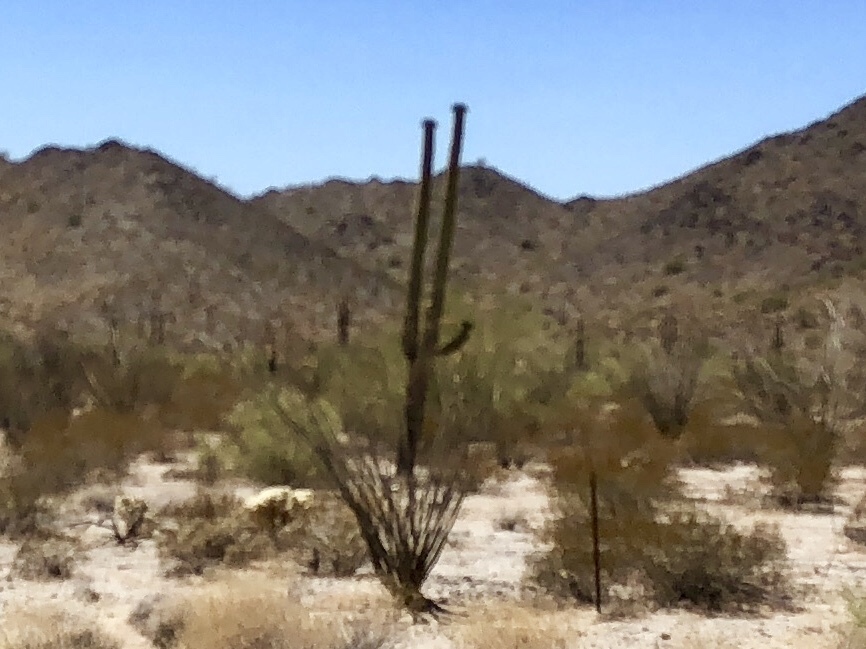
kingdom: Plantae
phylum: Tracheophyta
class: Magnoliopsida
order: Caryophyllales
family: Cactaceae
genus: Carnegiea
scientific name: Carnegiea gigantea
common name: Saguaro
